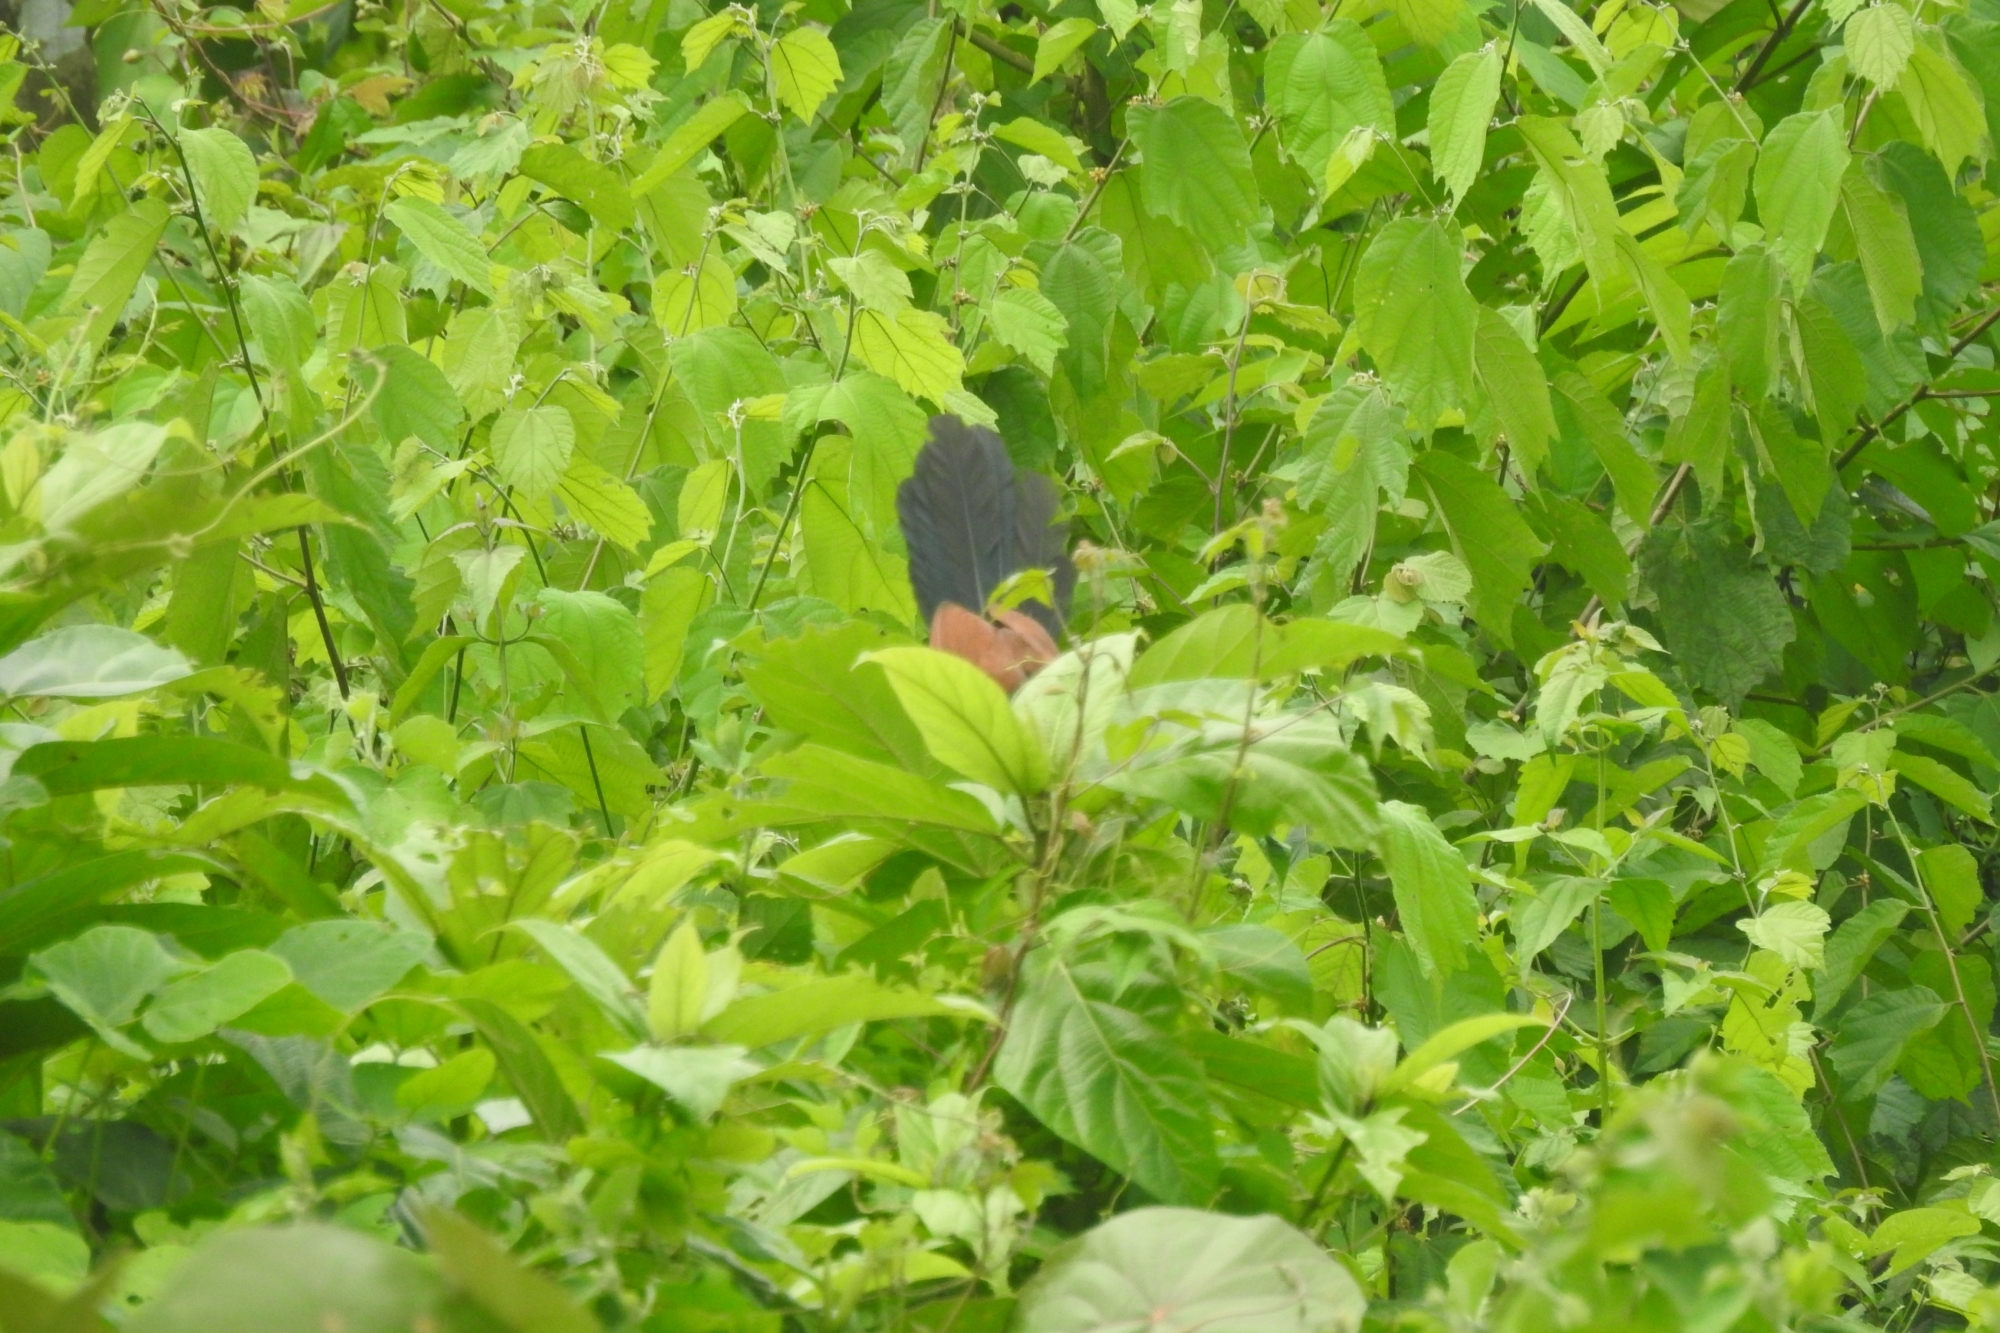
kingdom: Animalia
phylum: Chordata
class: Aves
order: Cuculiformes
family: Cuculidae
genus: Centropus
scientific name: Centropus sinensis
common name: Greater coucal
